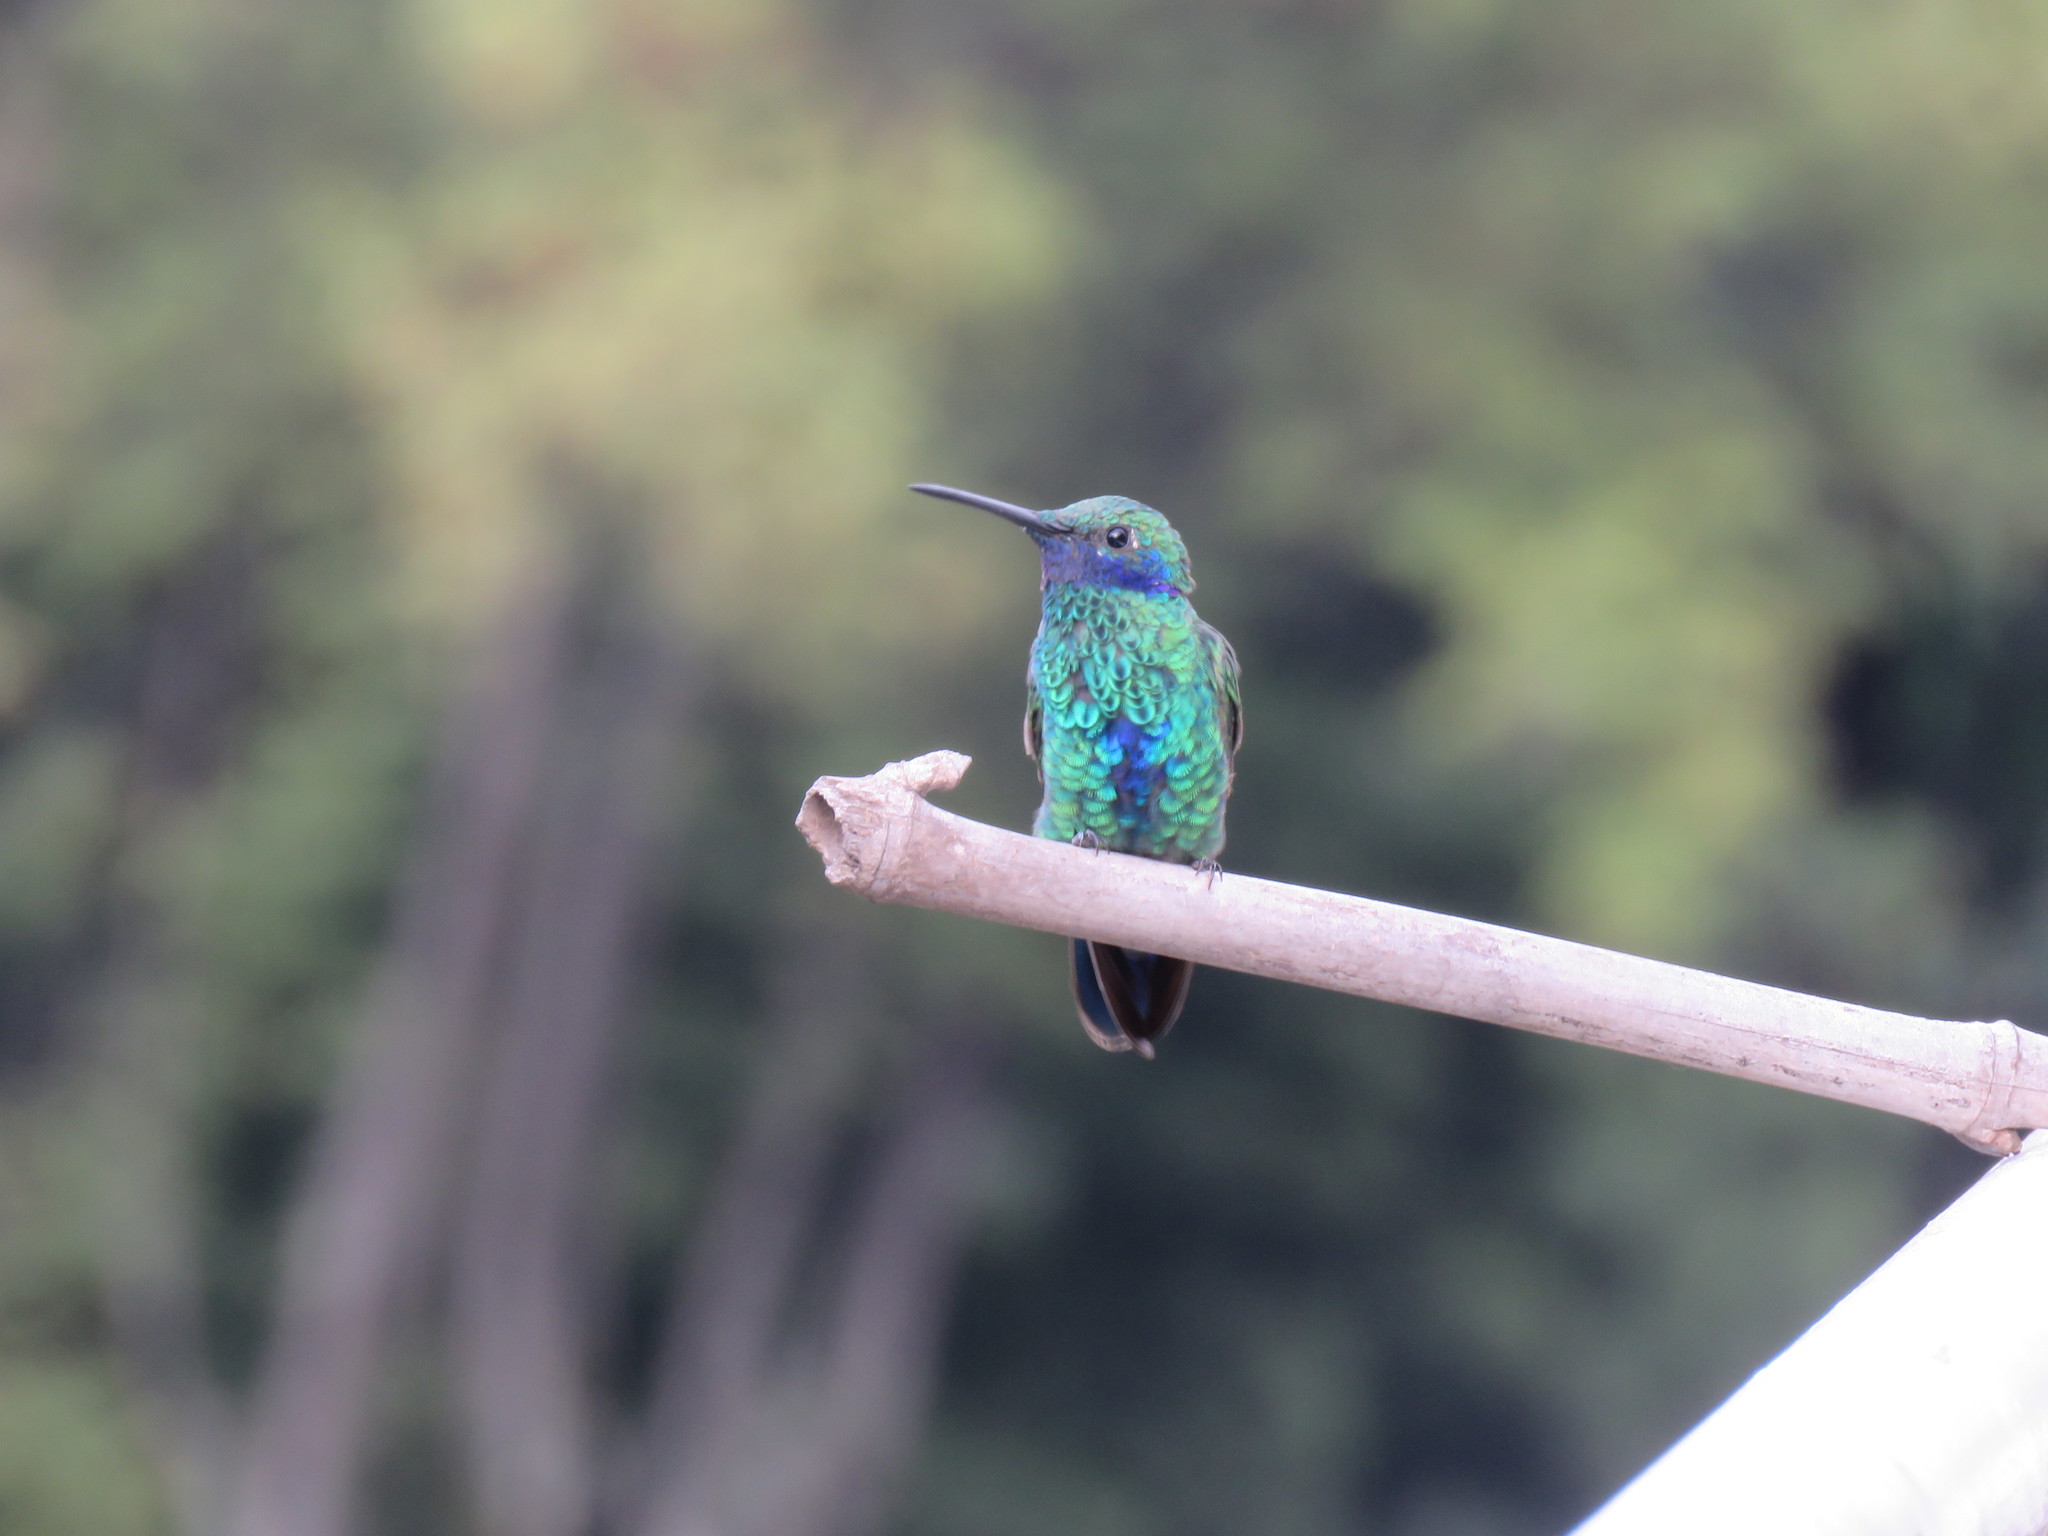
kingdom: Animalia
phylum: Chordata
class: Aves
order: Apodiformes
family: Trochilidae
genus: Colibri
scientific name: Colibri coruscans
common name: Sparkling violetear
